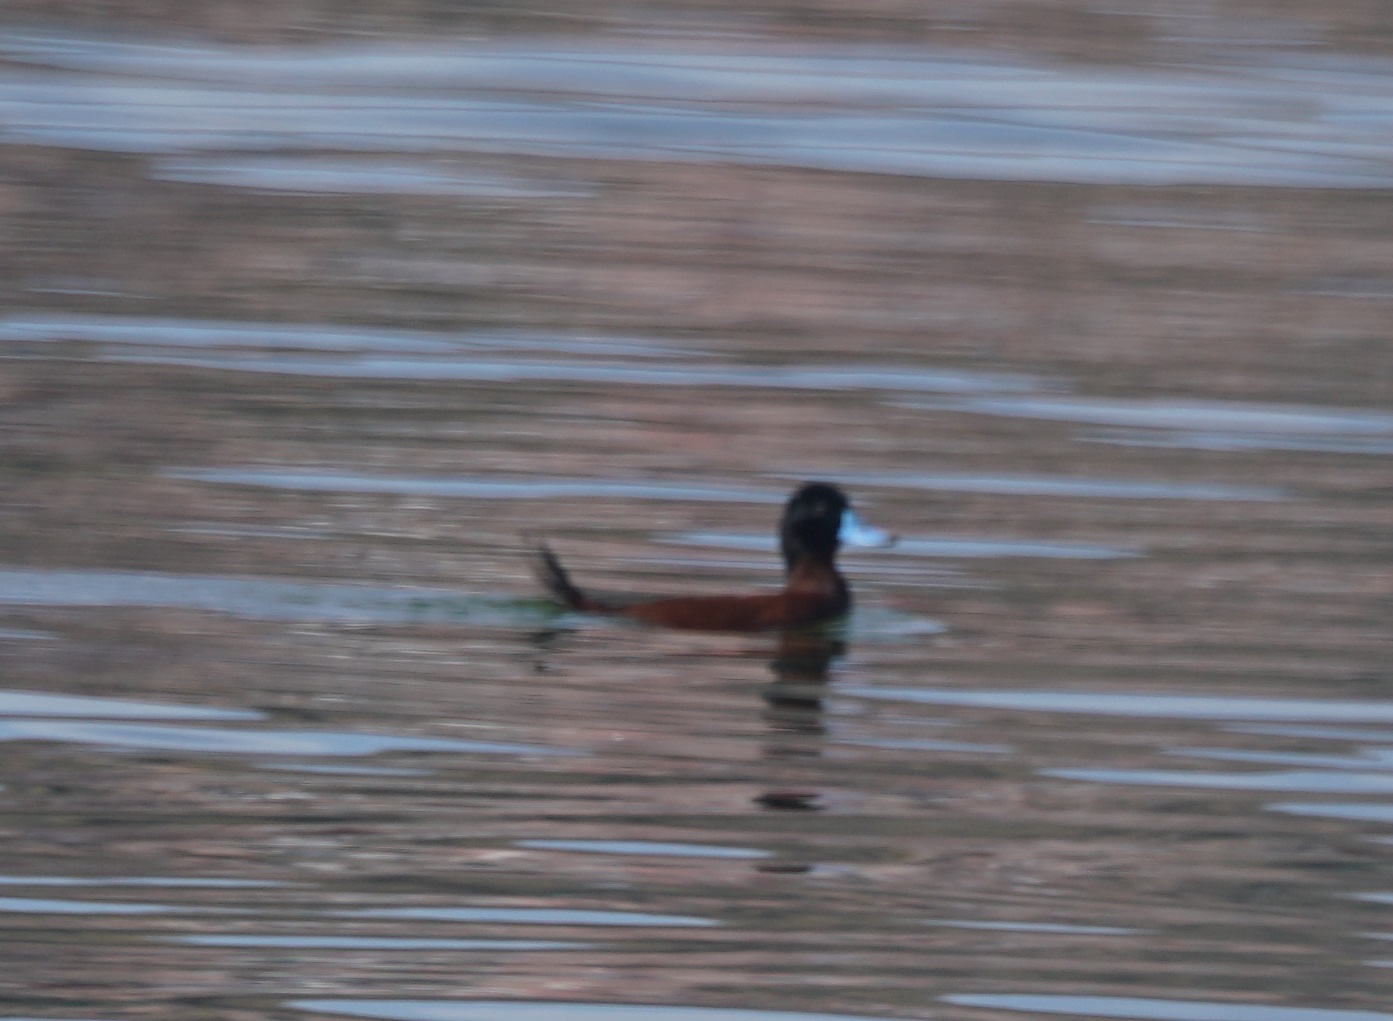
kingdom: Animalia
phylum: Chordata
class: Aves
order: Anseriformes
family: Anatidae
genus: Oxyura
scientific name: Oxyura ferruginea
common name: Andean duck
